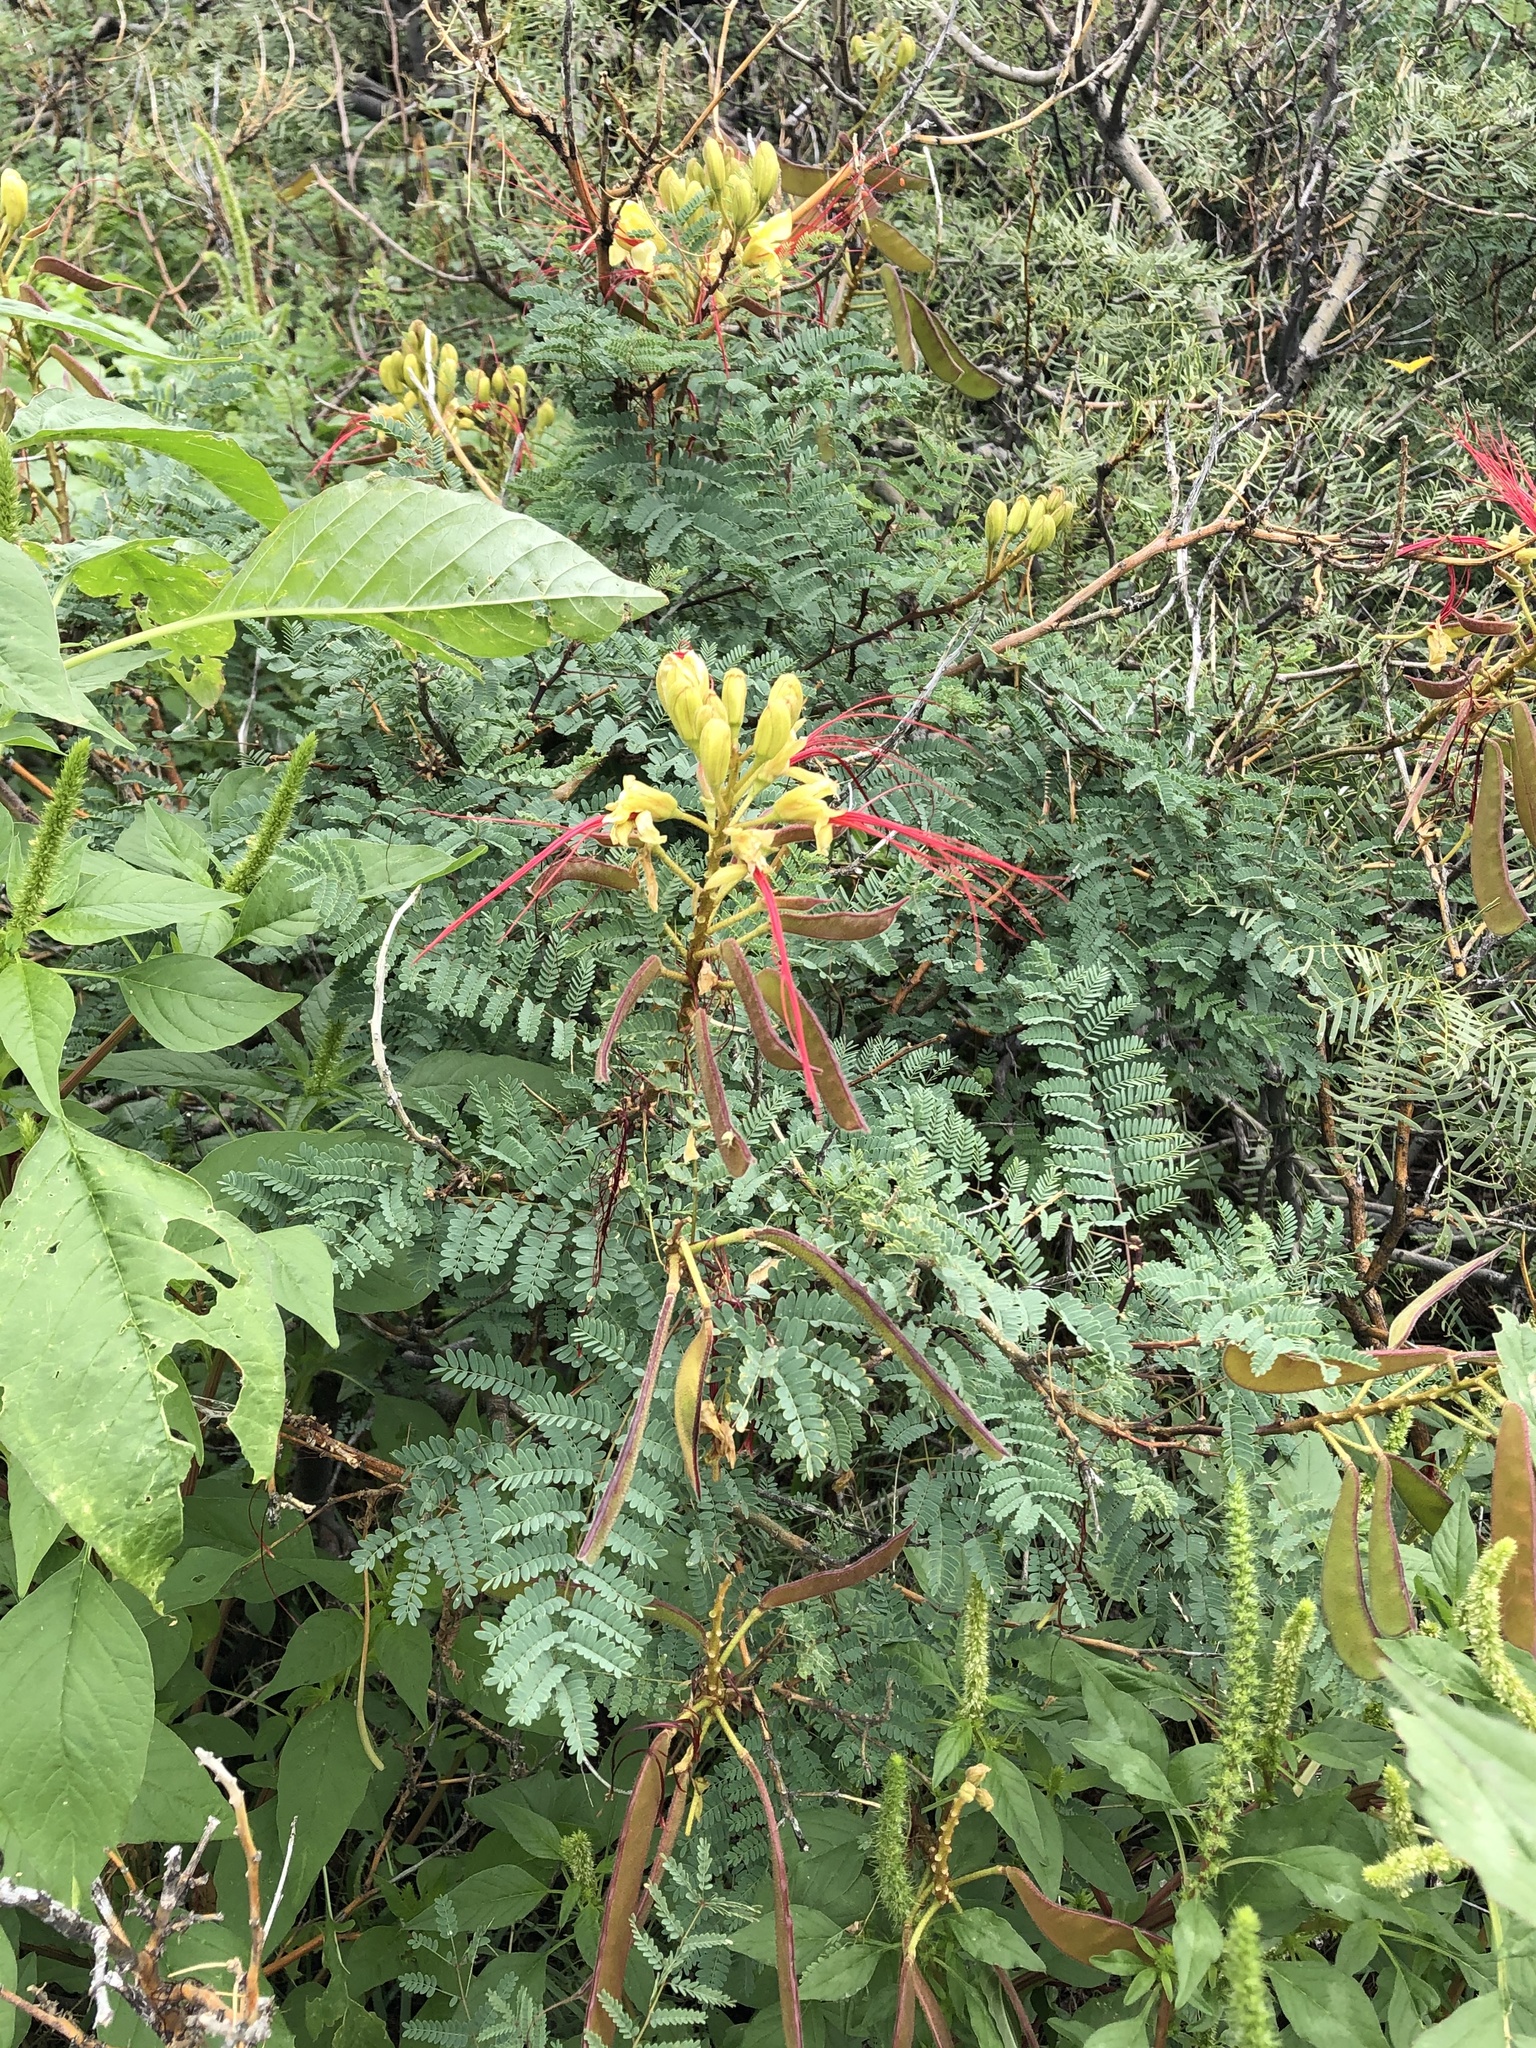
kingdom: Plantae
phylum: Tracheophyta
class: Magnoliopsida
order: Fabales
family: Fabaceae
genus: Erythrostemon
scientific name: Erythrostemon gilliesii
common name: Bird-of-paradise shrub
